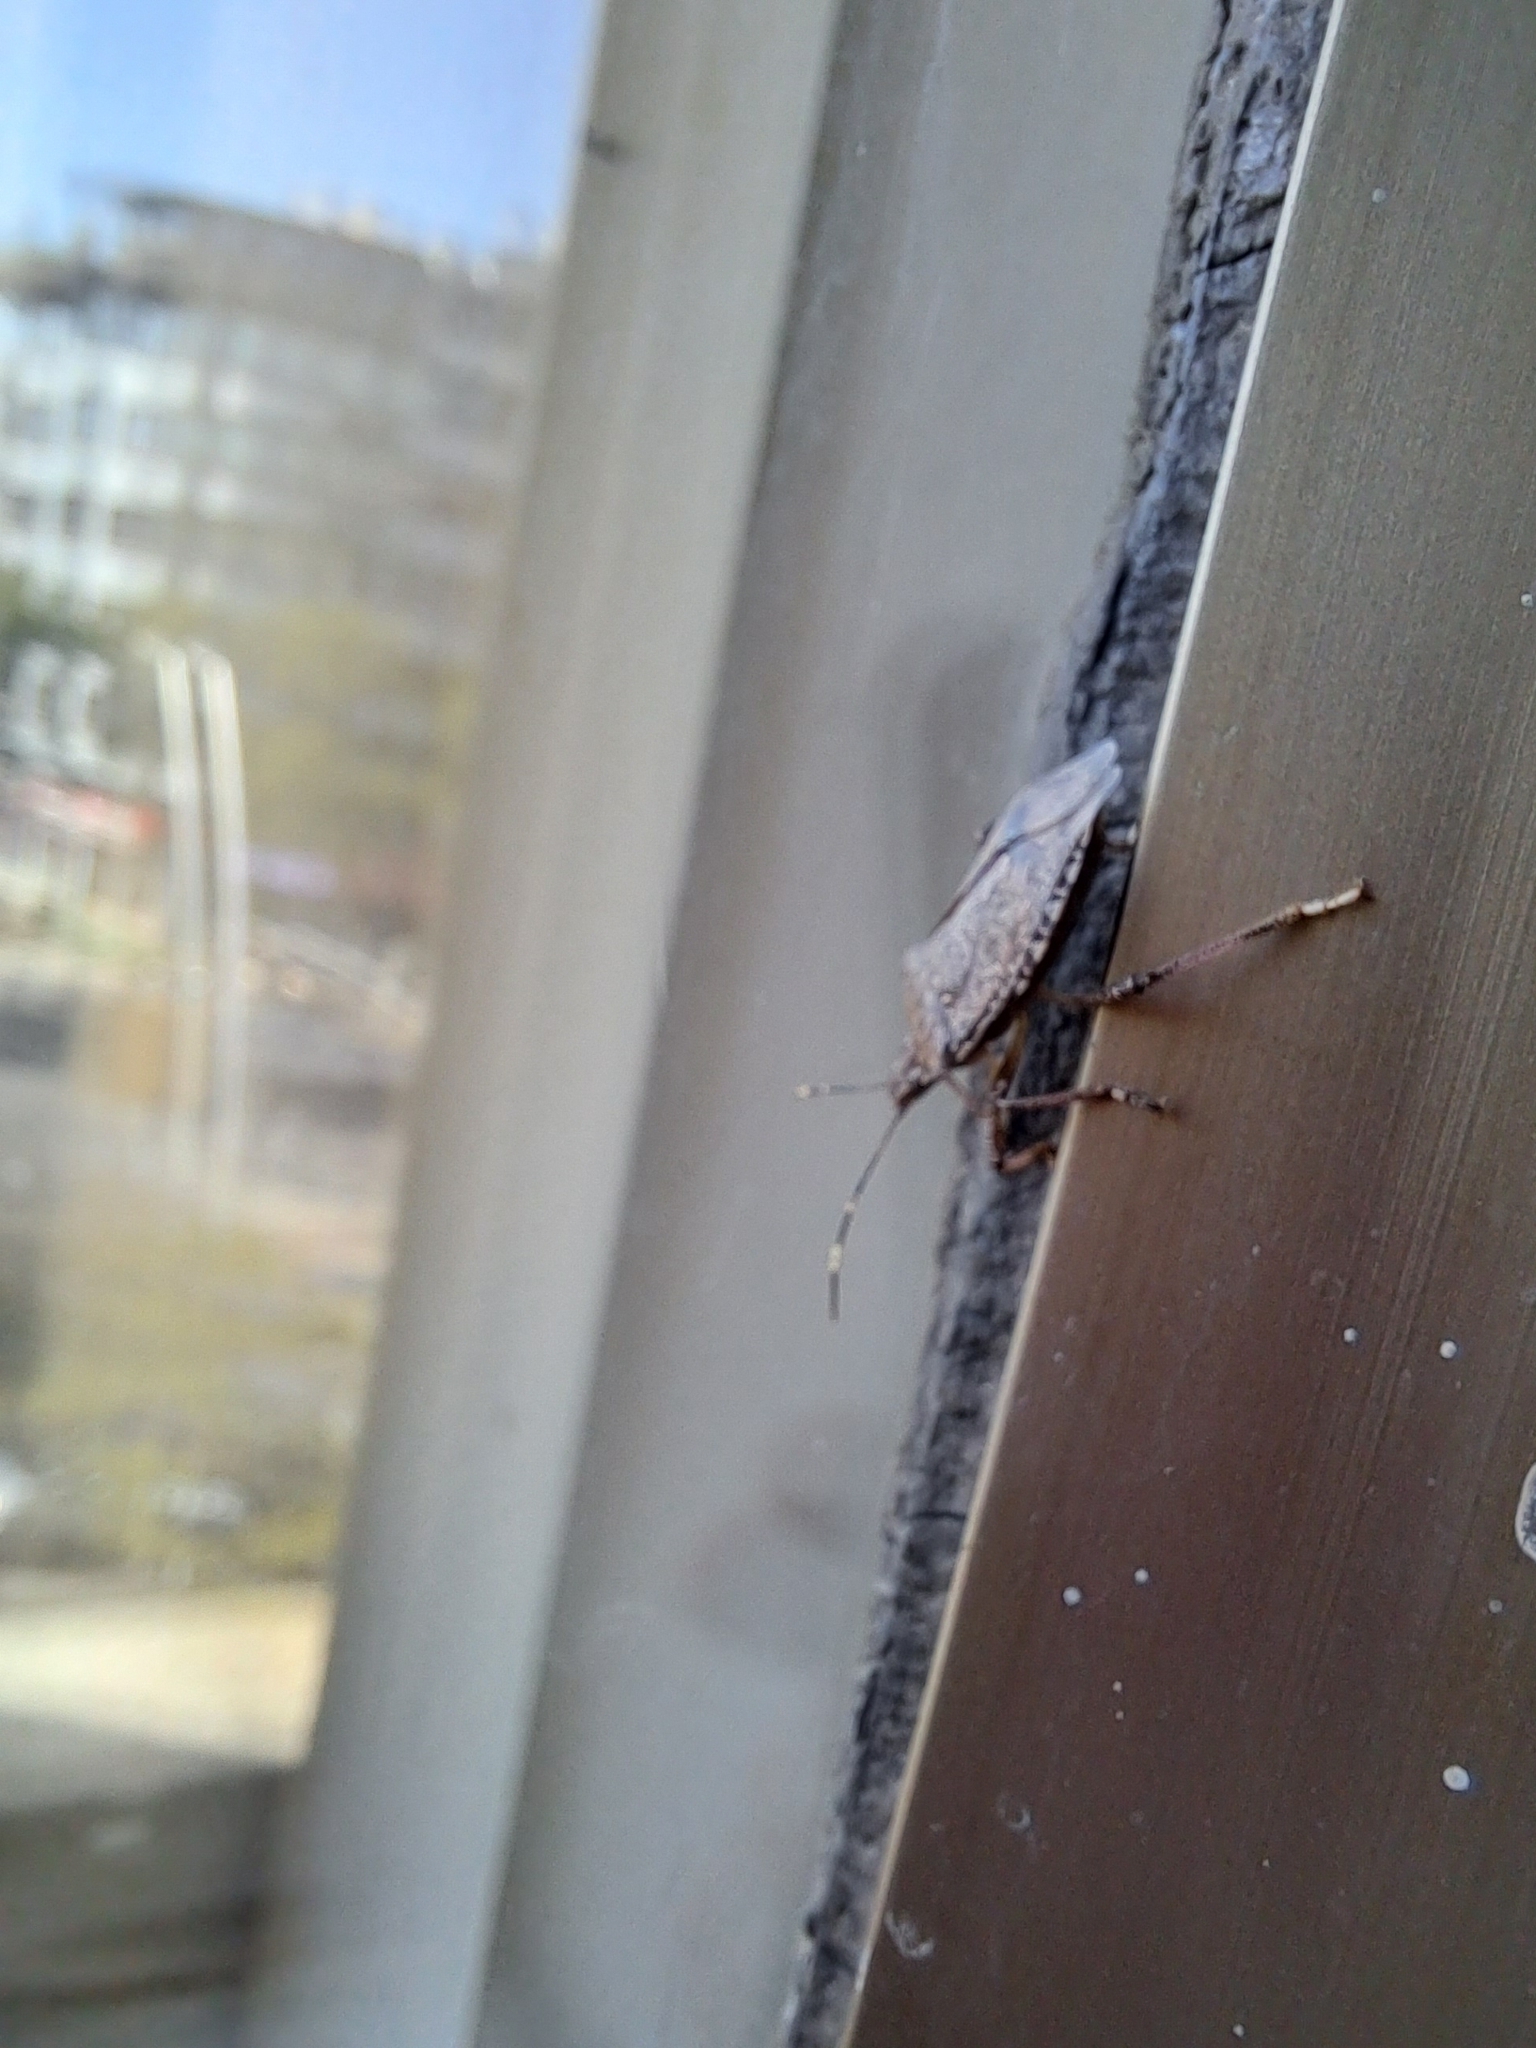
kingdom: Animalia
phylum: Arthropoda
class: Insecta
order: Hemiptera
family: Pentatomidae
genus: Halyomorpha
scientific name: Halyomorpha halys
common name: Brown marmorated stink bug
